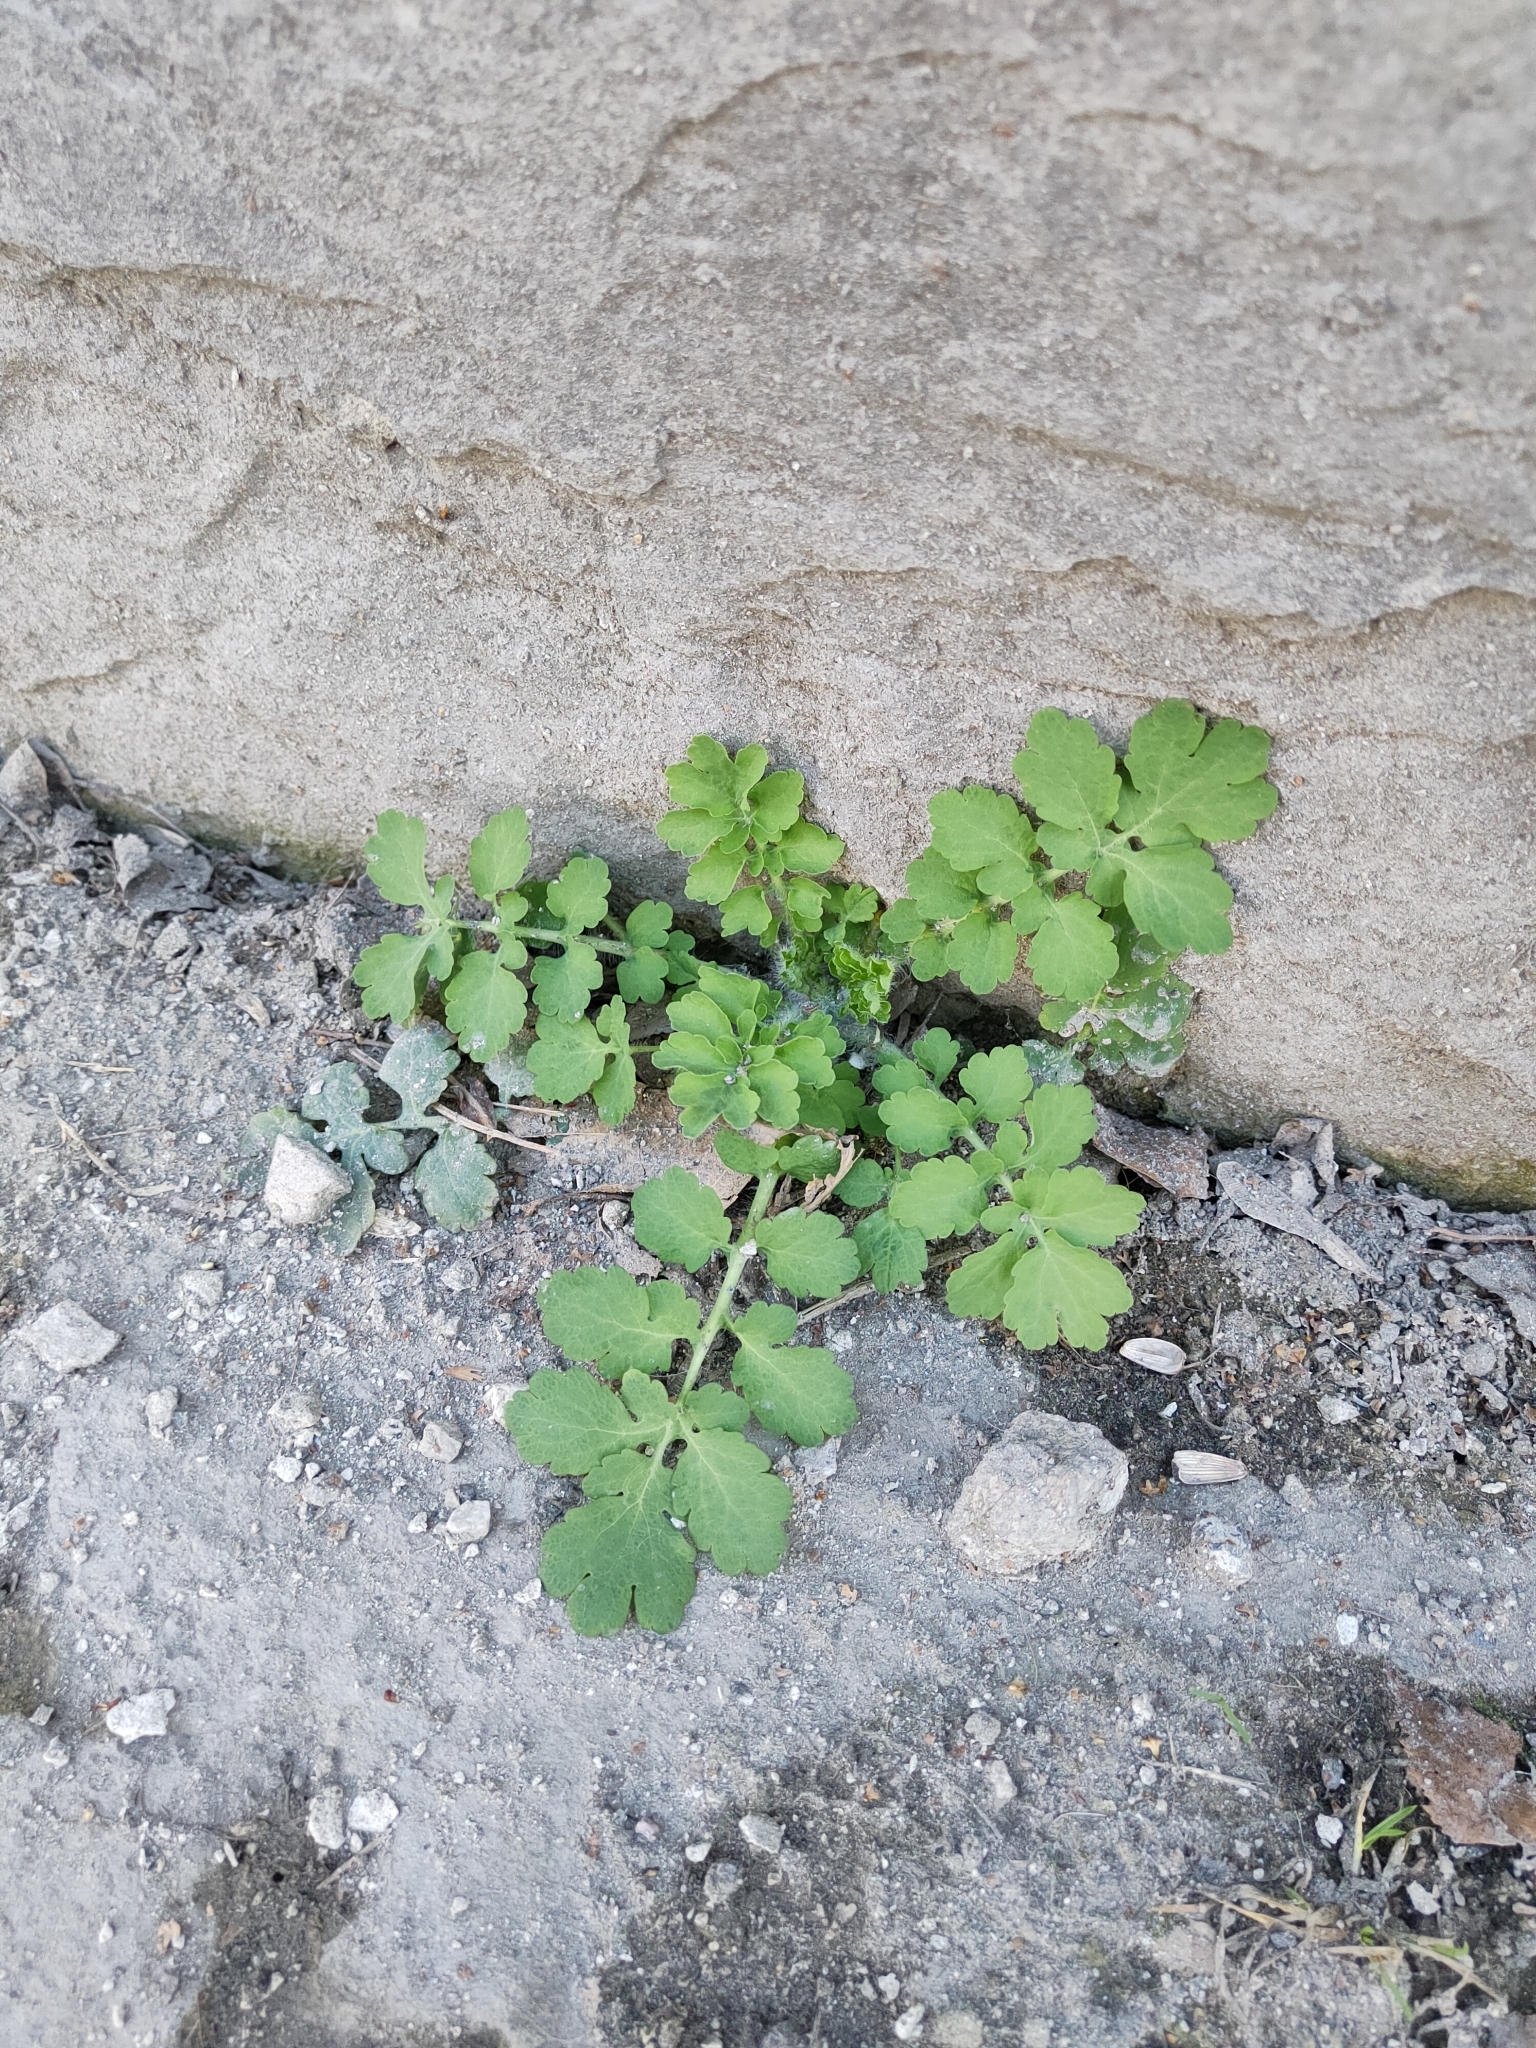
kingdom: Plantae
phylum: Tracheophyta
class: Magnoliopsida
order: Ranunculales
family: Papaveraceae
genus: Chelidonium
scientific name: Chelidonium majus
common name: Greater celandine
